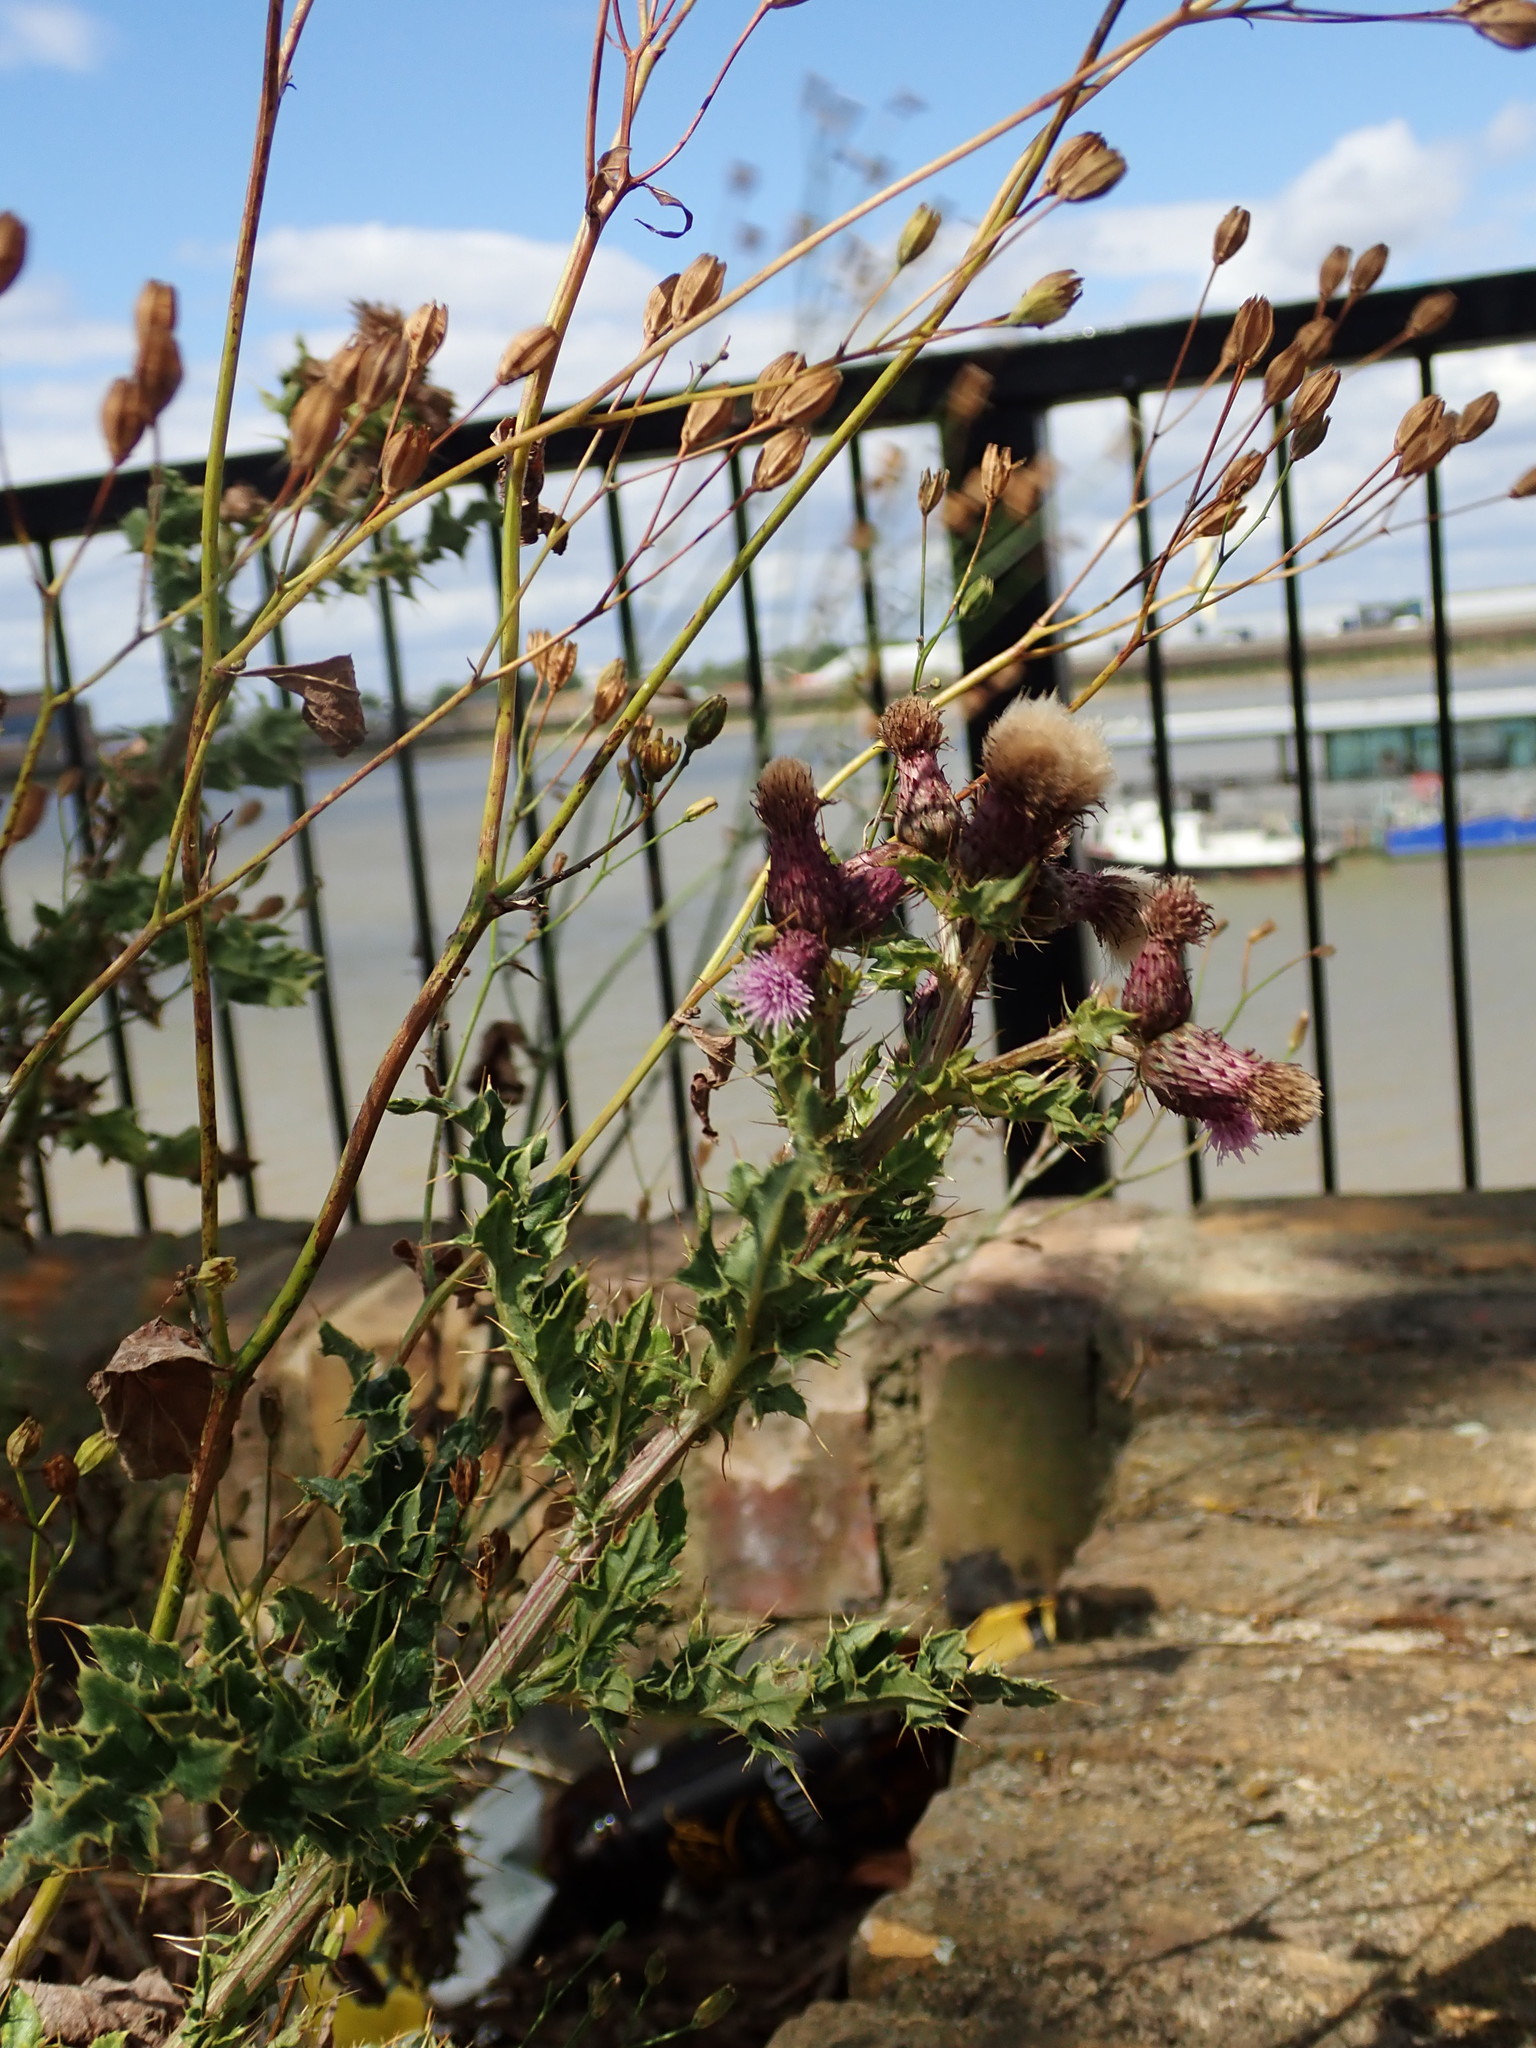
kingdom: Plantae
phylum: Tracheophyta
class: Magnoliopsida
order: Asterales
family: Asteraceae
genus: Cirsium
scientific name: Cirsium arvense
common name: Creeping thistle
